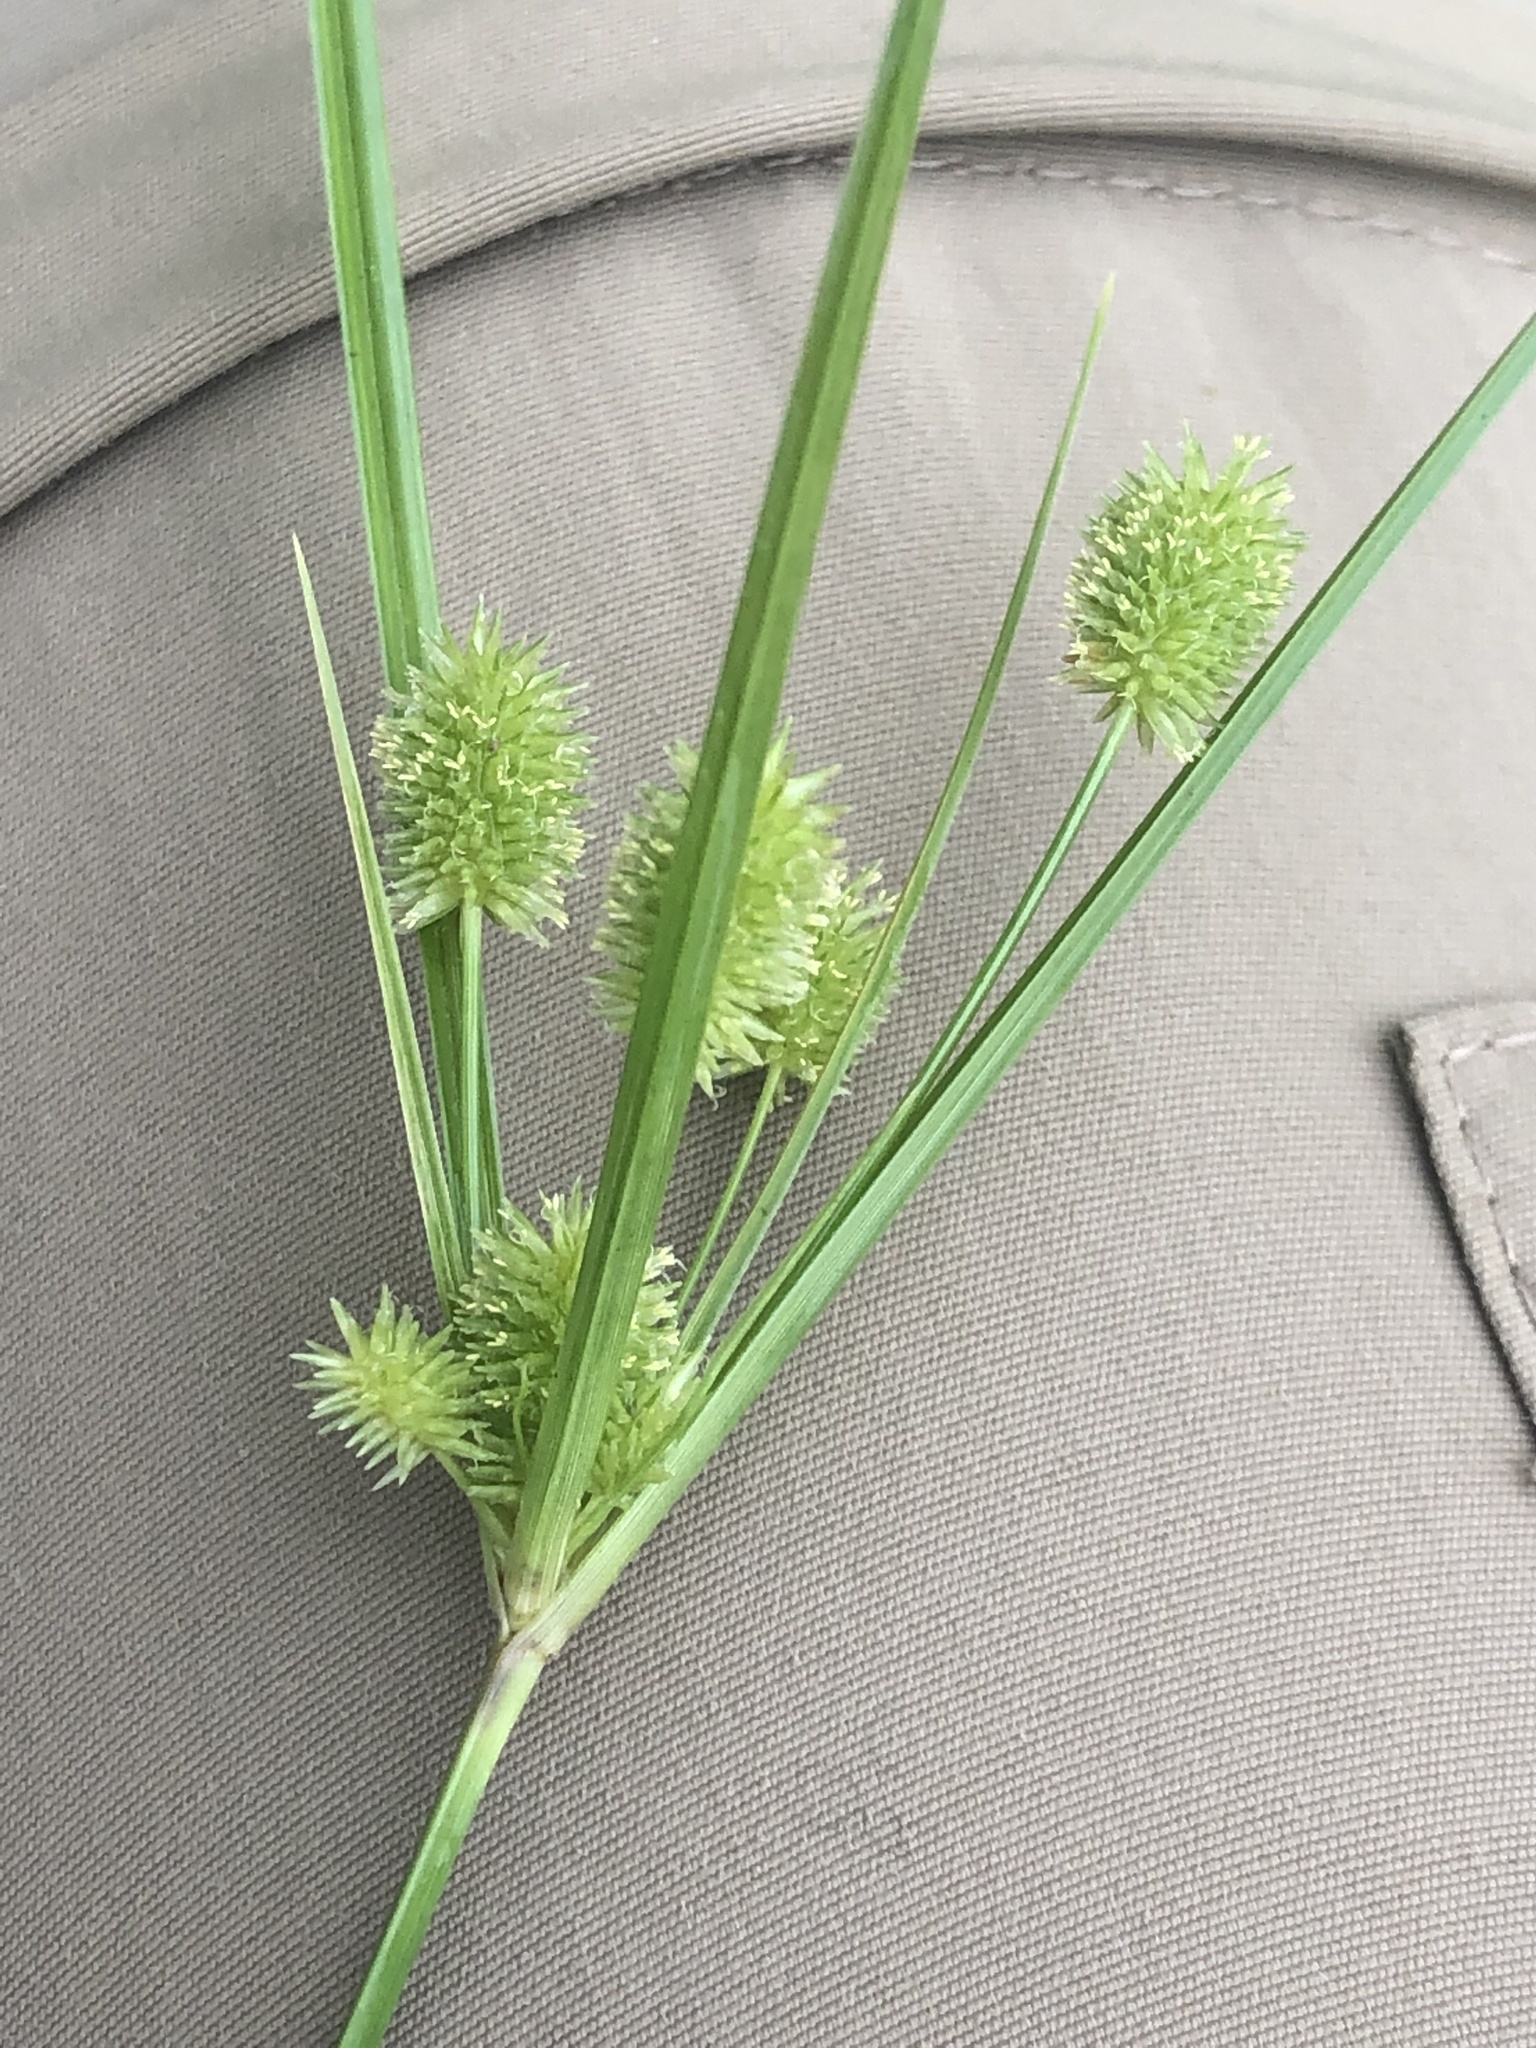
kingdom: Plantae
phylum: Tracheophyta
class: Liliopsida
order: Poales
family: Cyperaceae
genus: Cyperus
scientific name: Cyperus echinatus
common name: Teasel sedge
